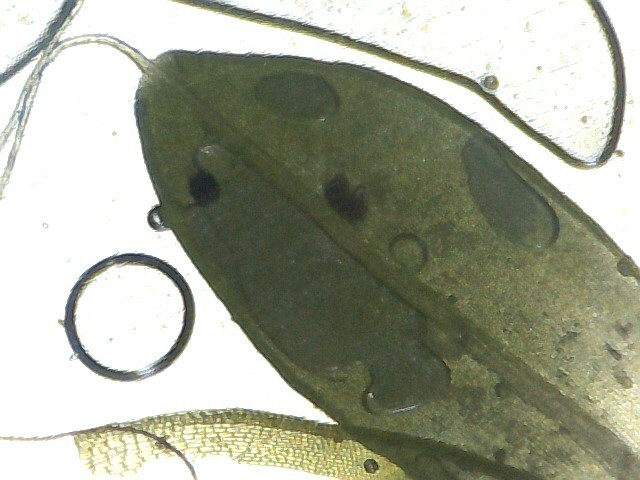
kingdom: Plantae
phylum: Bryophyta
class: Bryopsida
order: Pottiales
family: Pottiaceae
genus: Tortula
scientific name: Tortula muralis
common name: Wall screw-moss
